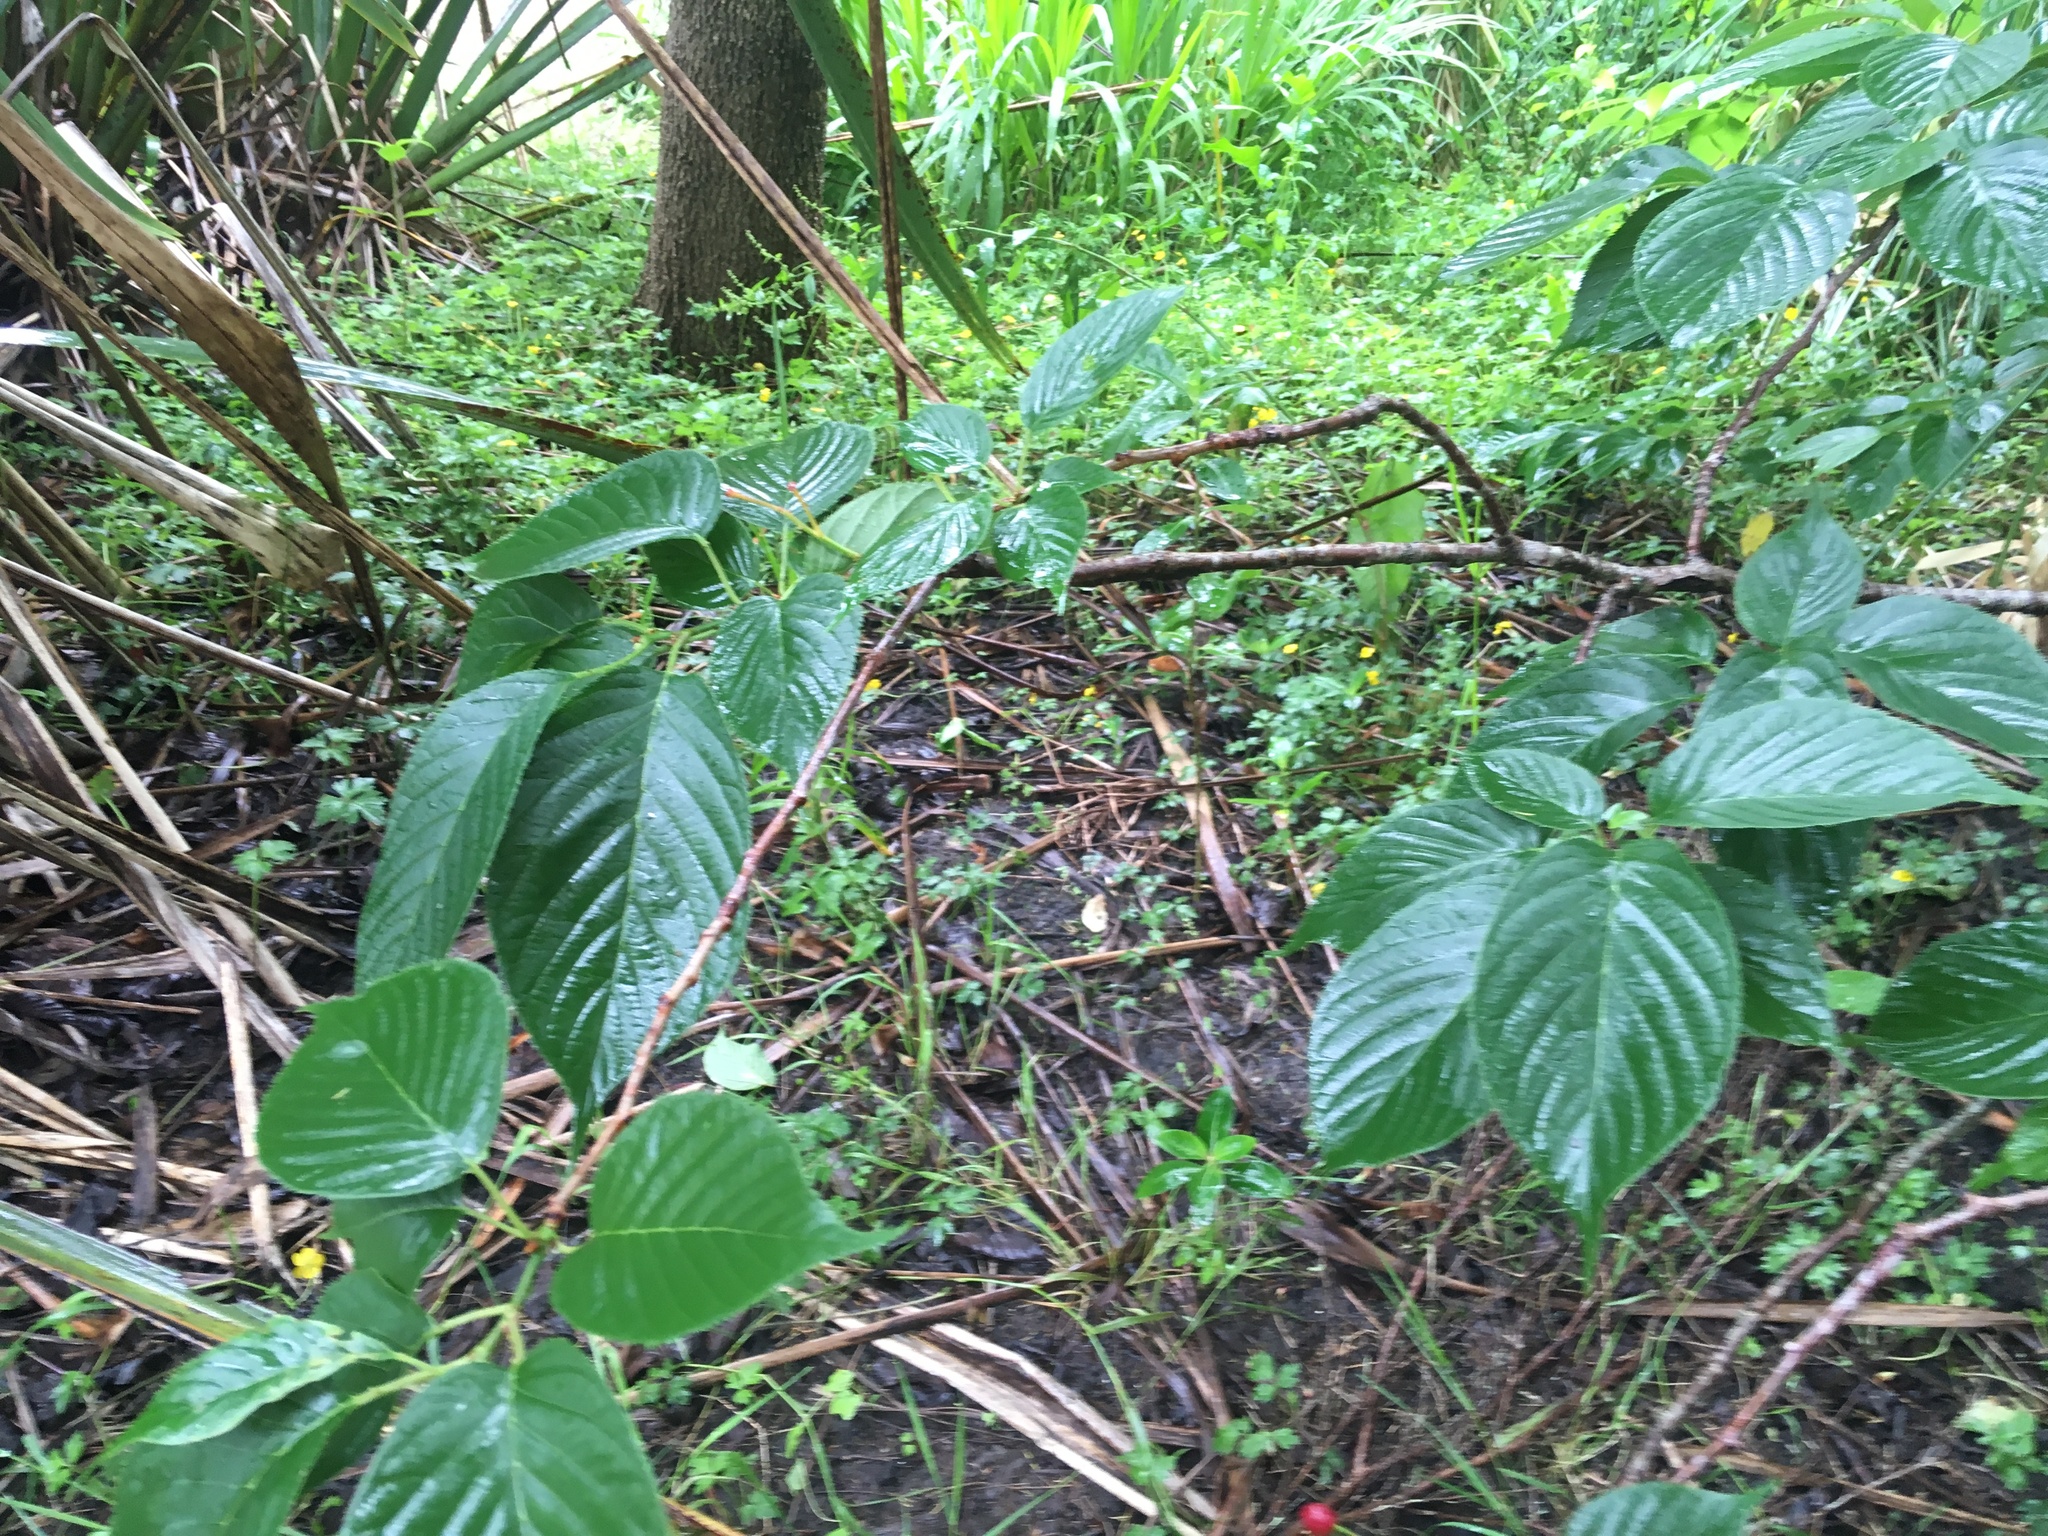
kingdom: Plantae
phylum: Tracheophyta
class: Magnoliopsida
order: Rosales
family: Rosaceae
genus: Prunus
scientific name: Prunus serrulata
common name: Japanese cherry
